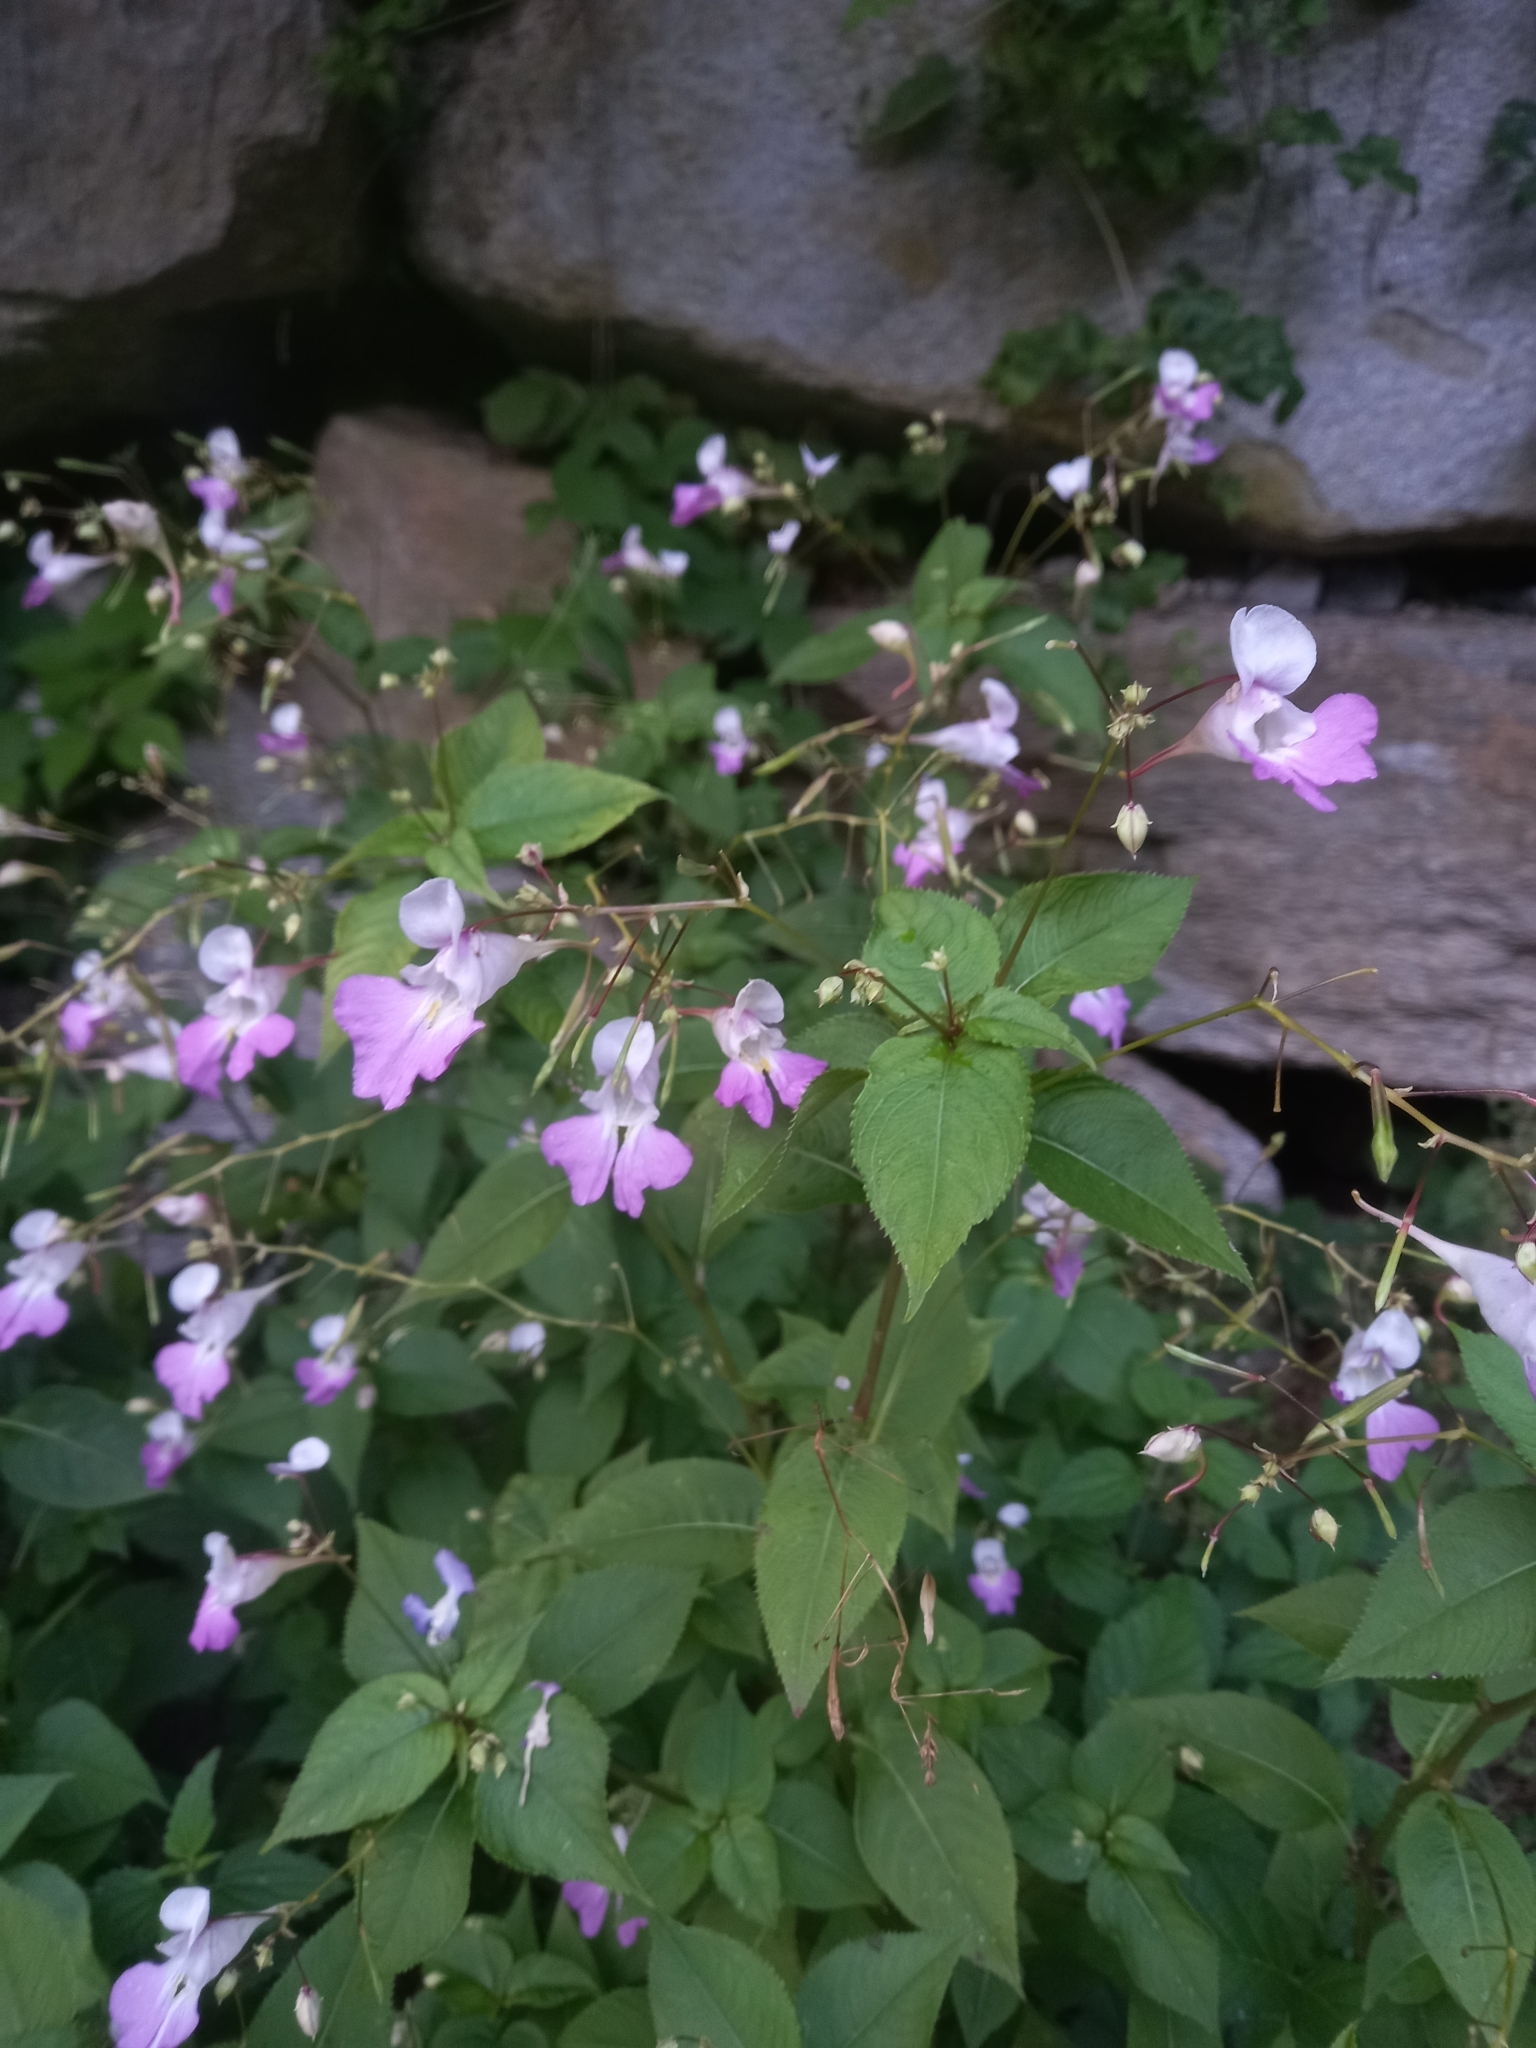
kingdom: Plantae
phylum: Tracheophyta
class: Magnoliopsida
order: Ericales
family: Balsaminaceae
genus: Impatiens
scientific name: Impatiens balfourii
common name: Balfour's touch-me-not
